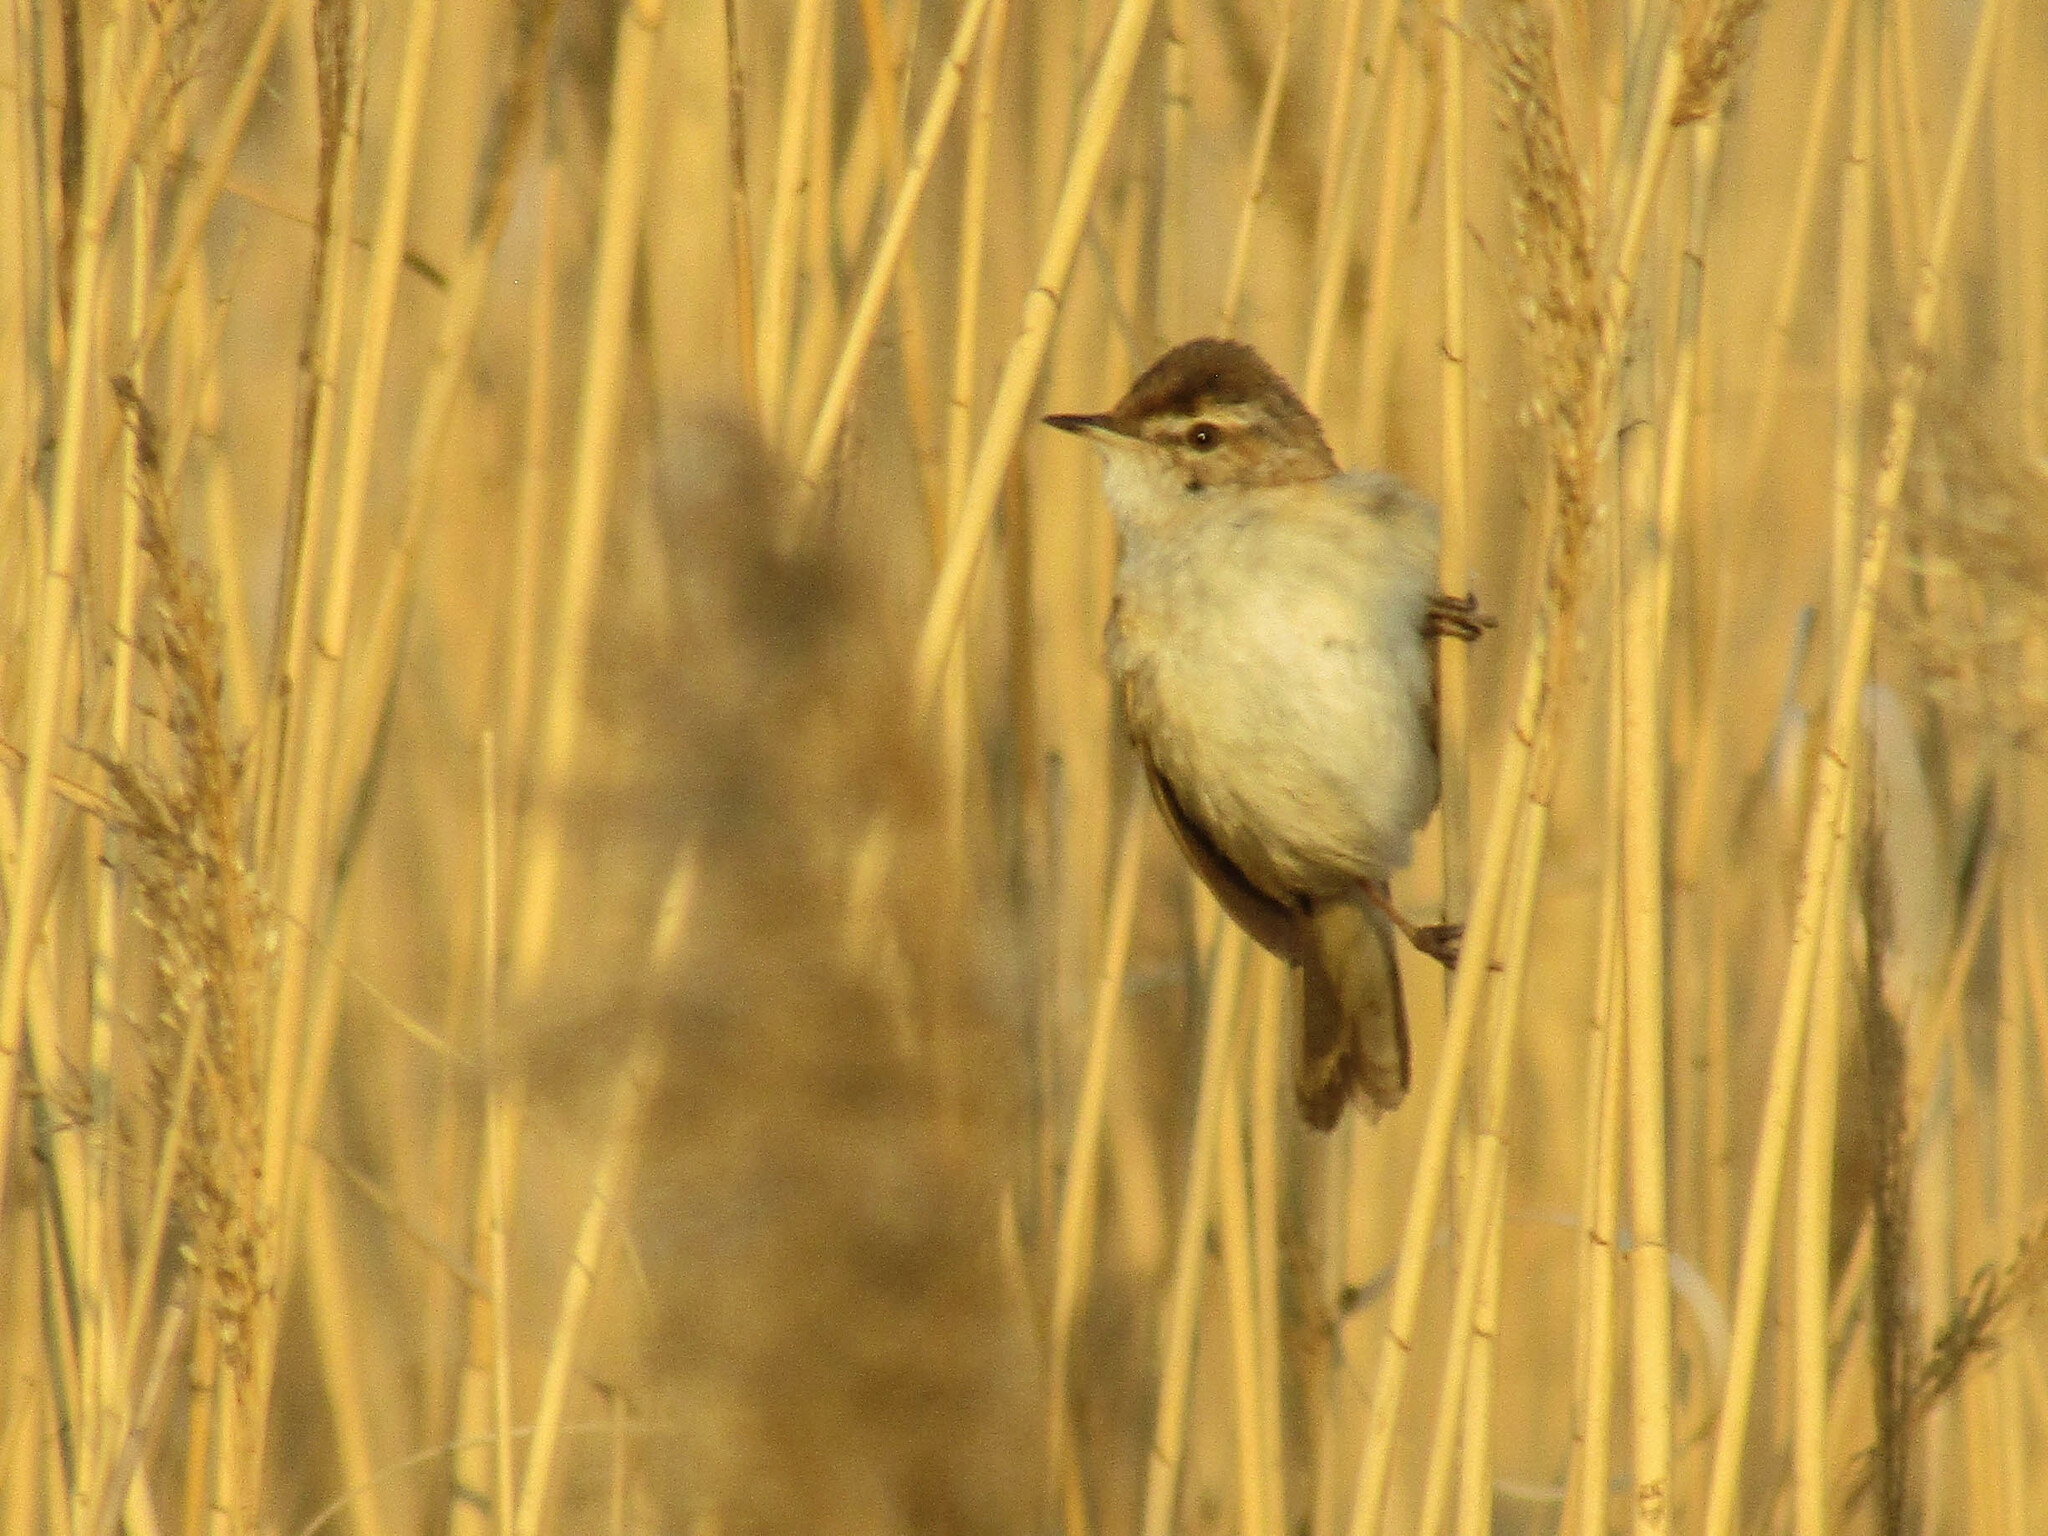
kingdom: Animalia
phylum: Chordata
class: Aves
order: Passeriformes
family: Acrocephalidae
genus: Acrocephalus
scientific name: Acrocephalus agricola
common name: Paddyfield warbler
